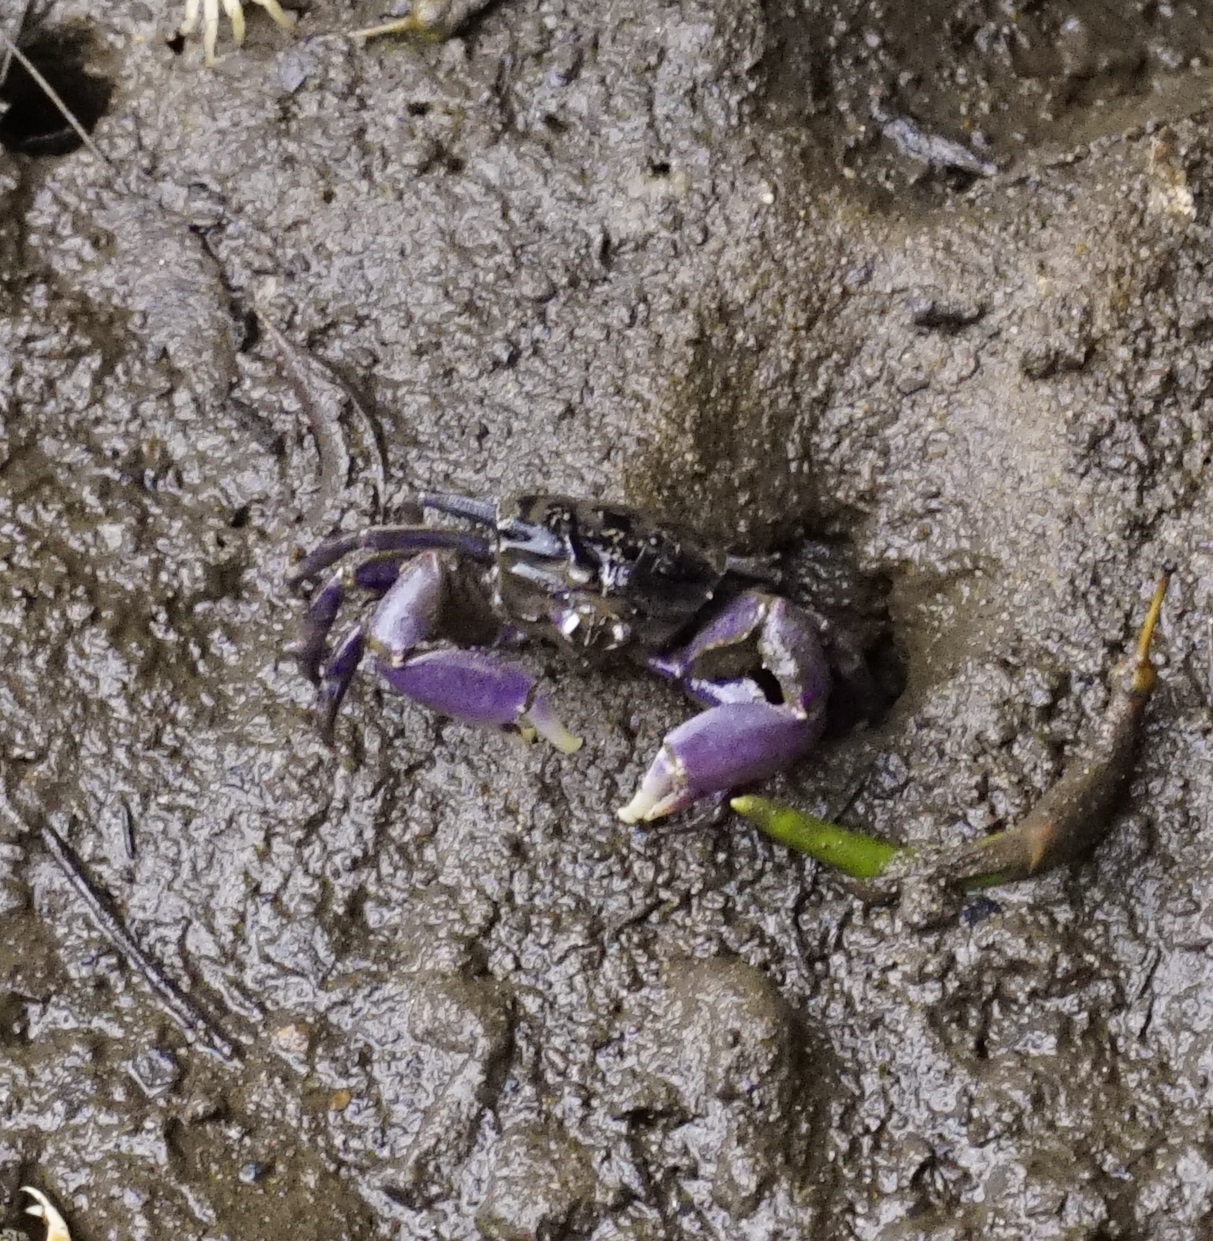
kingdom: Animalia
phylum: Arthropoda
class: Malacostraca
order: Decapoda
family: Heloeciidae
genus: Heloecius
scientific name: Heloecius cordiformis
